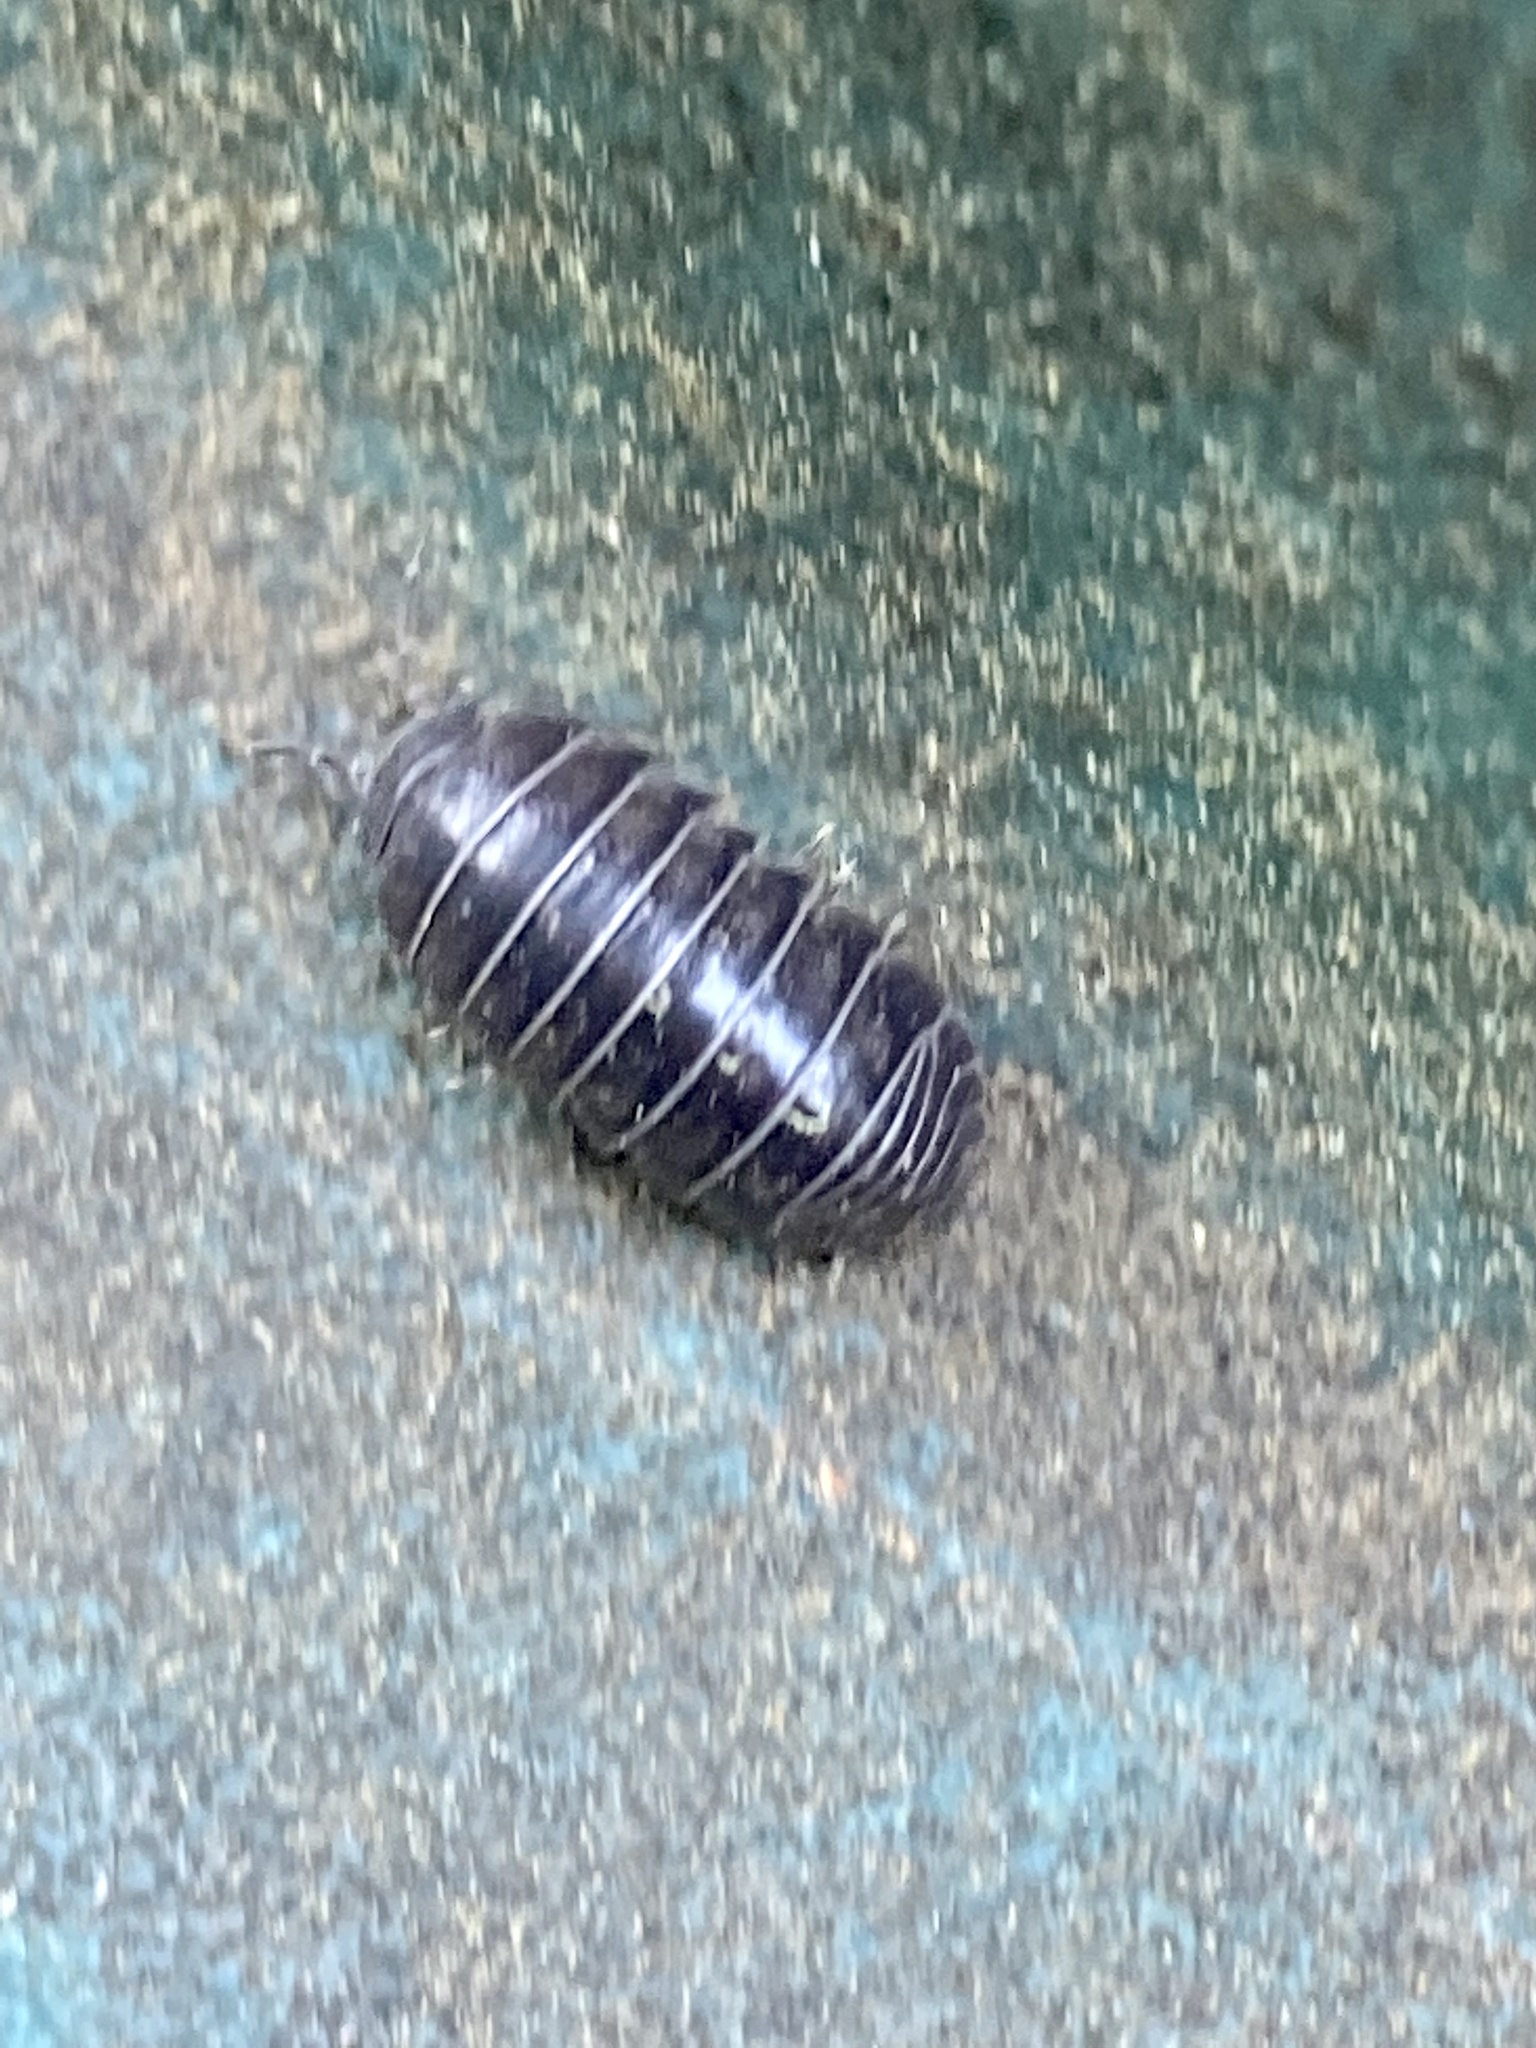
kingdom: Animalia
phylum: Arthropoda
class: Malacostraca
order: Isopoda
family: Armadillidiidae
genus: Armadillidium
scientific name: Armadillidium vulgare
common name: Common pill woodlouse
